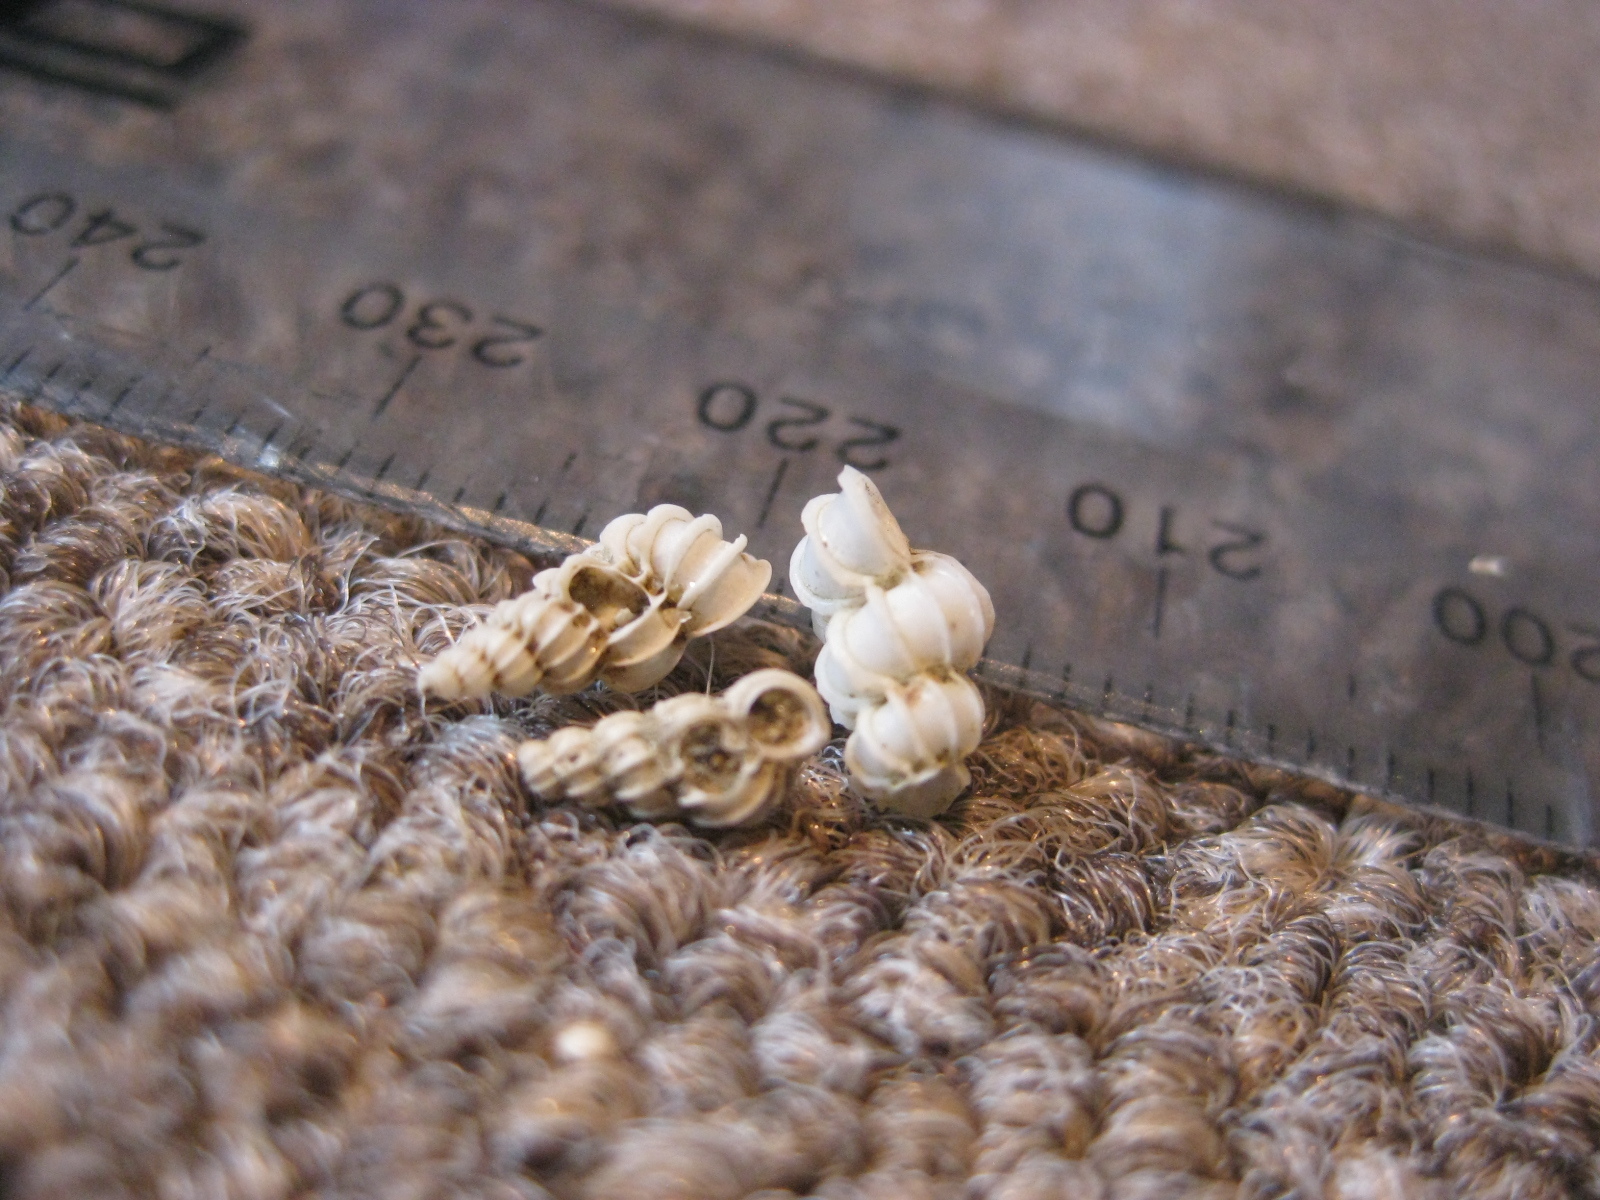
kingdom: Animalia
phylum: Mollusca
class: Gastropoda
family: Epitoniidae
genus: Epitonium
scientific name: Epitonium minorum
